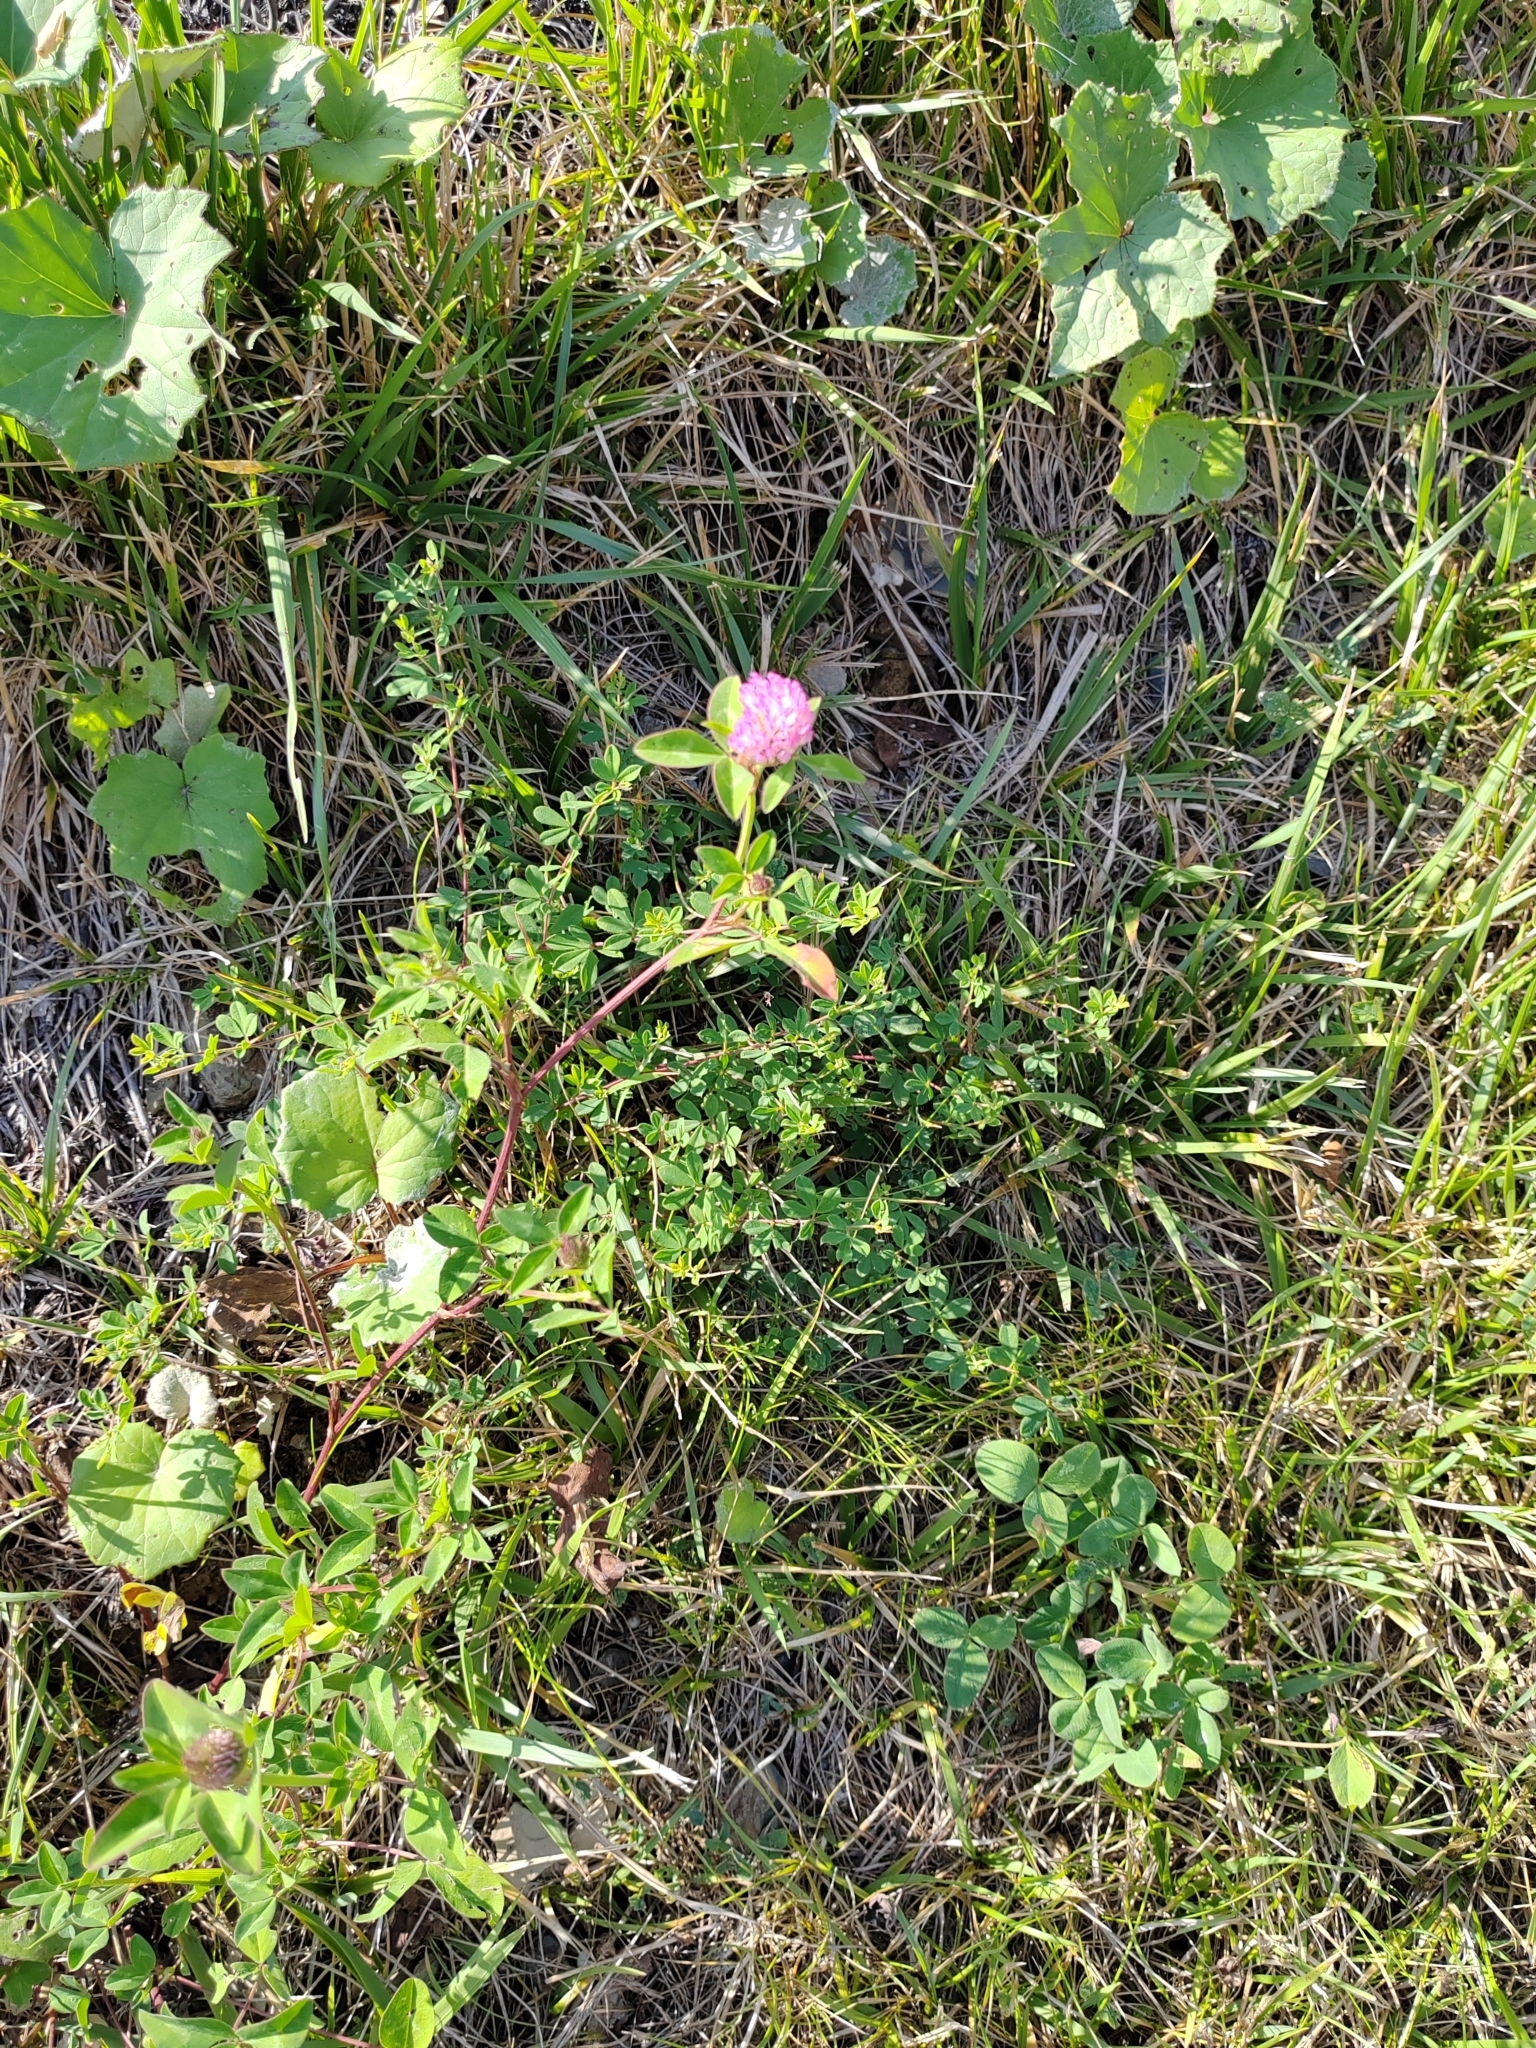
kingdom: Plantae
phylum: Tracheophyta
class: Magnoliopsida
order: Fabales
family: Fabaceae
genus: Trifolium
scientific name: Trifolium pratense
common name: Red clover
